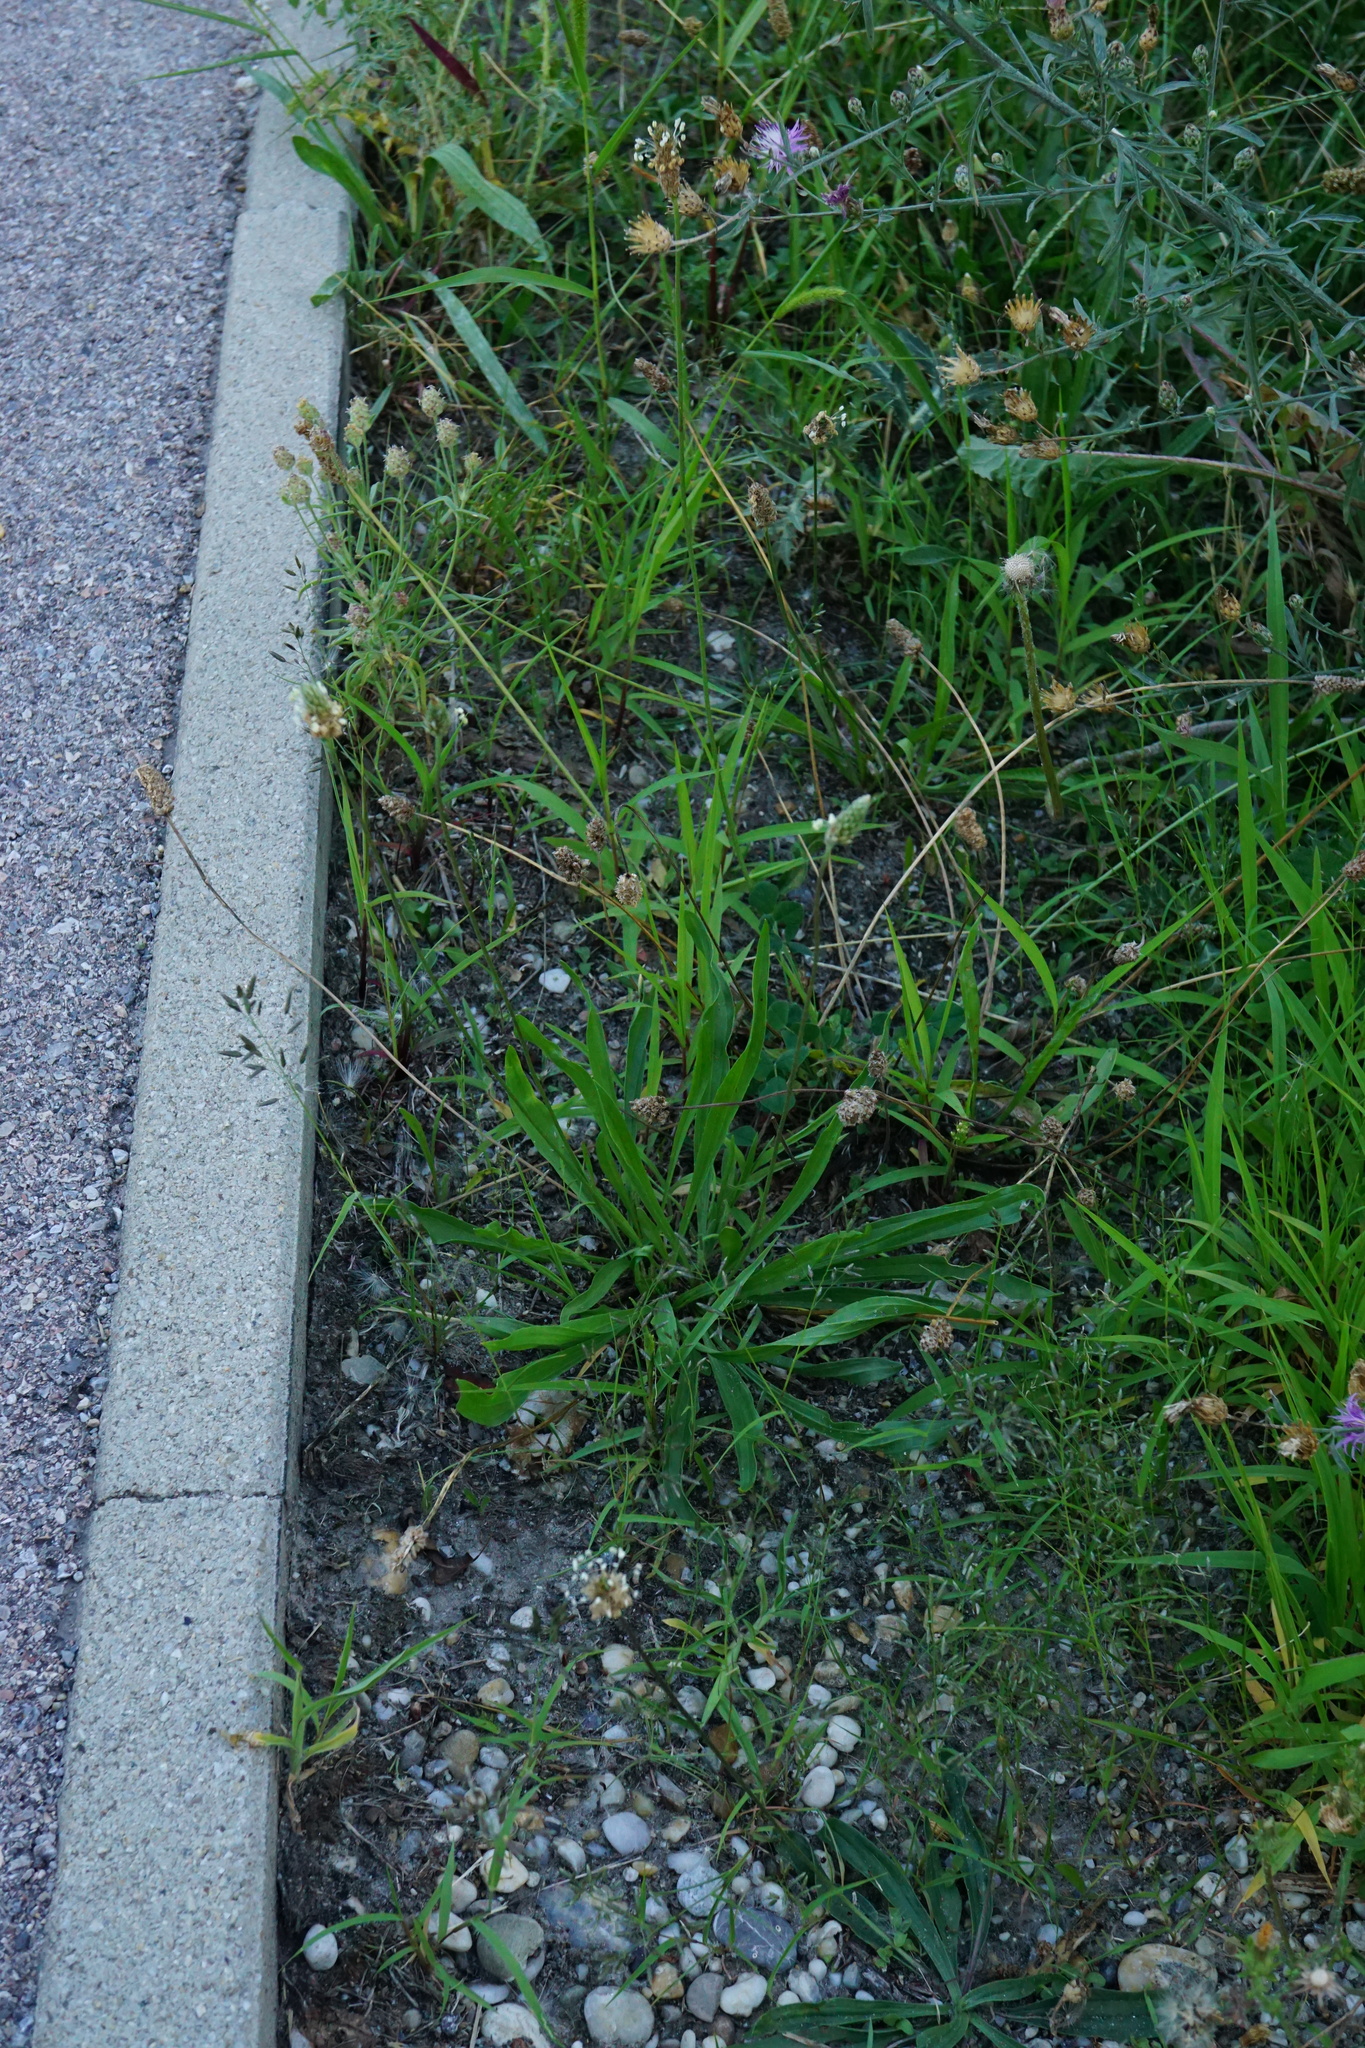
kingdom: Plantae
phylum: Tracheophyta
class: Magnoliopsida
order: Lamiales
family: Plantaginaceae
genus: Plantago
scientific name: Plantago lanceolata
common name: Ribwort plantain
